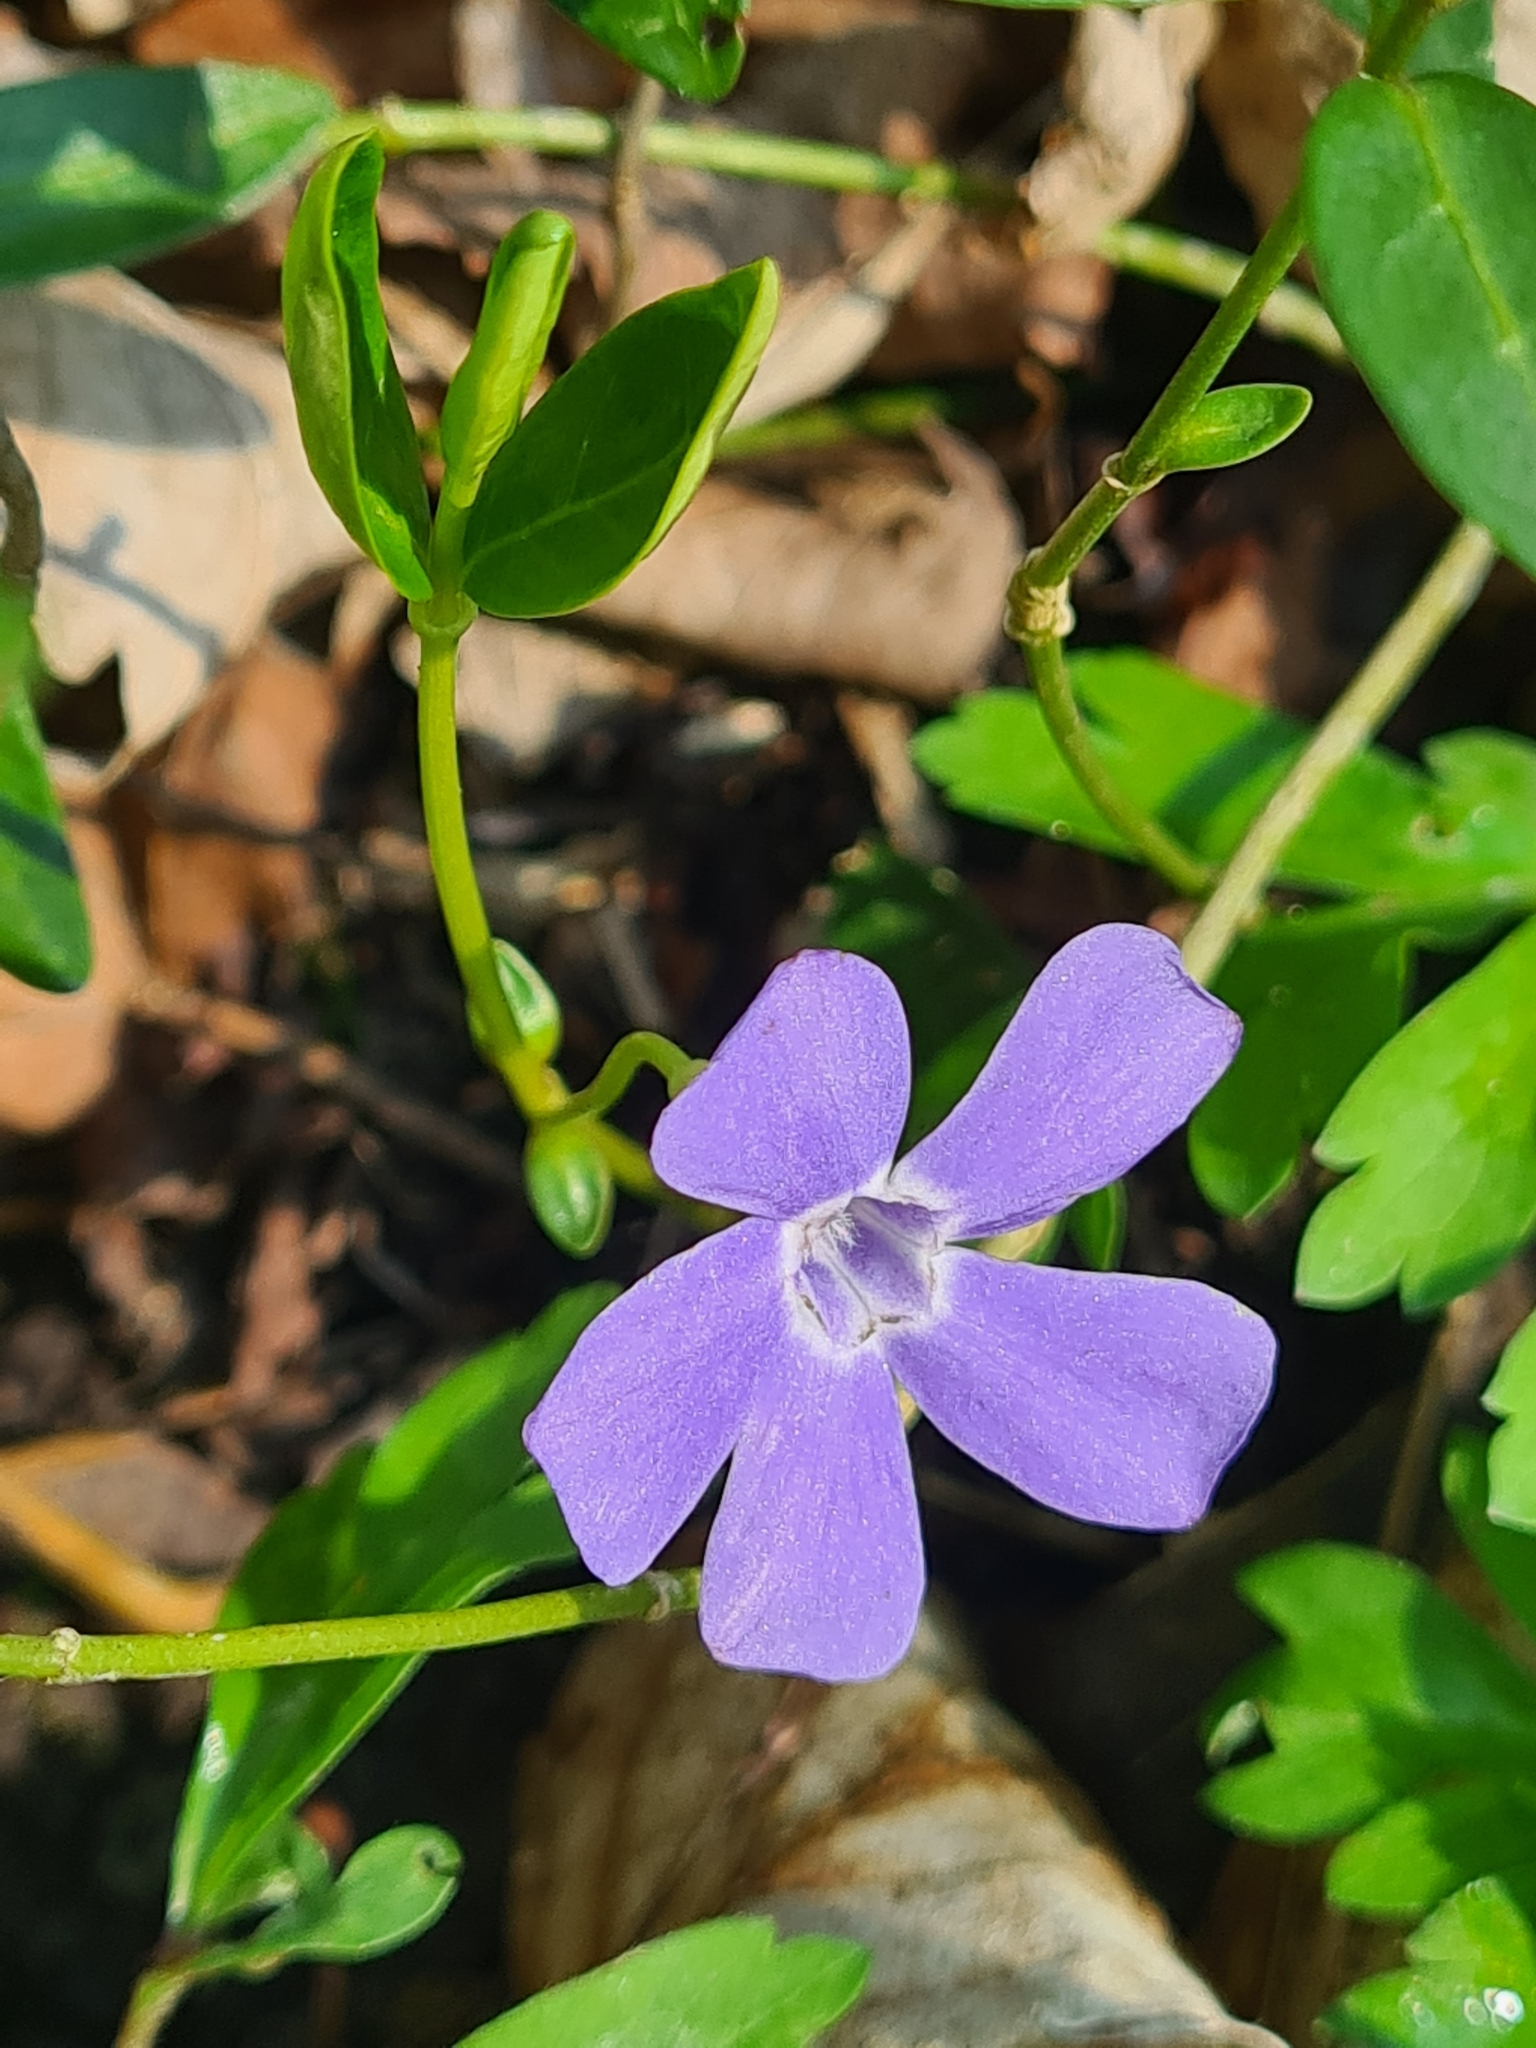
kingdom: Plantae
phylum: Tracheophyta
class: Magnoliopsida
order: Gentianales
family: Apocynaceae
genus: Vinca
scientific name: Vinca minor
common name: Lesser periwinkle
